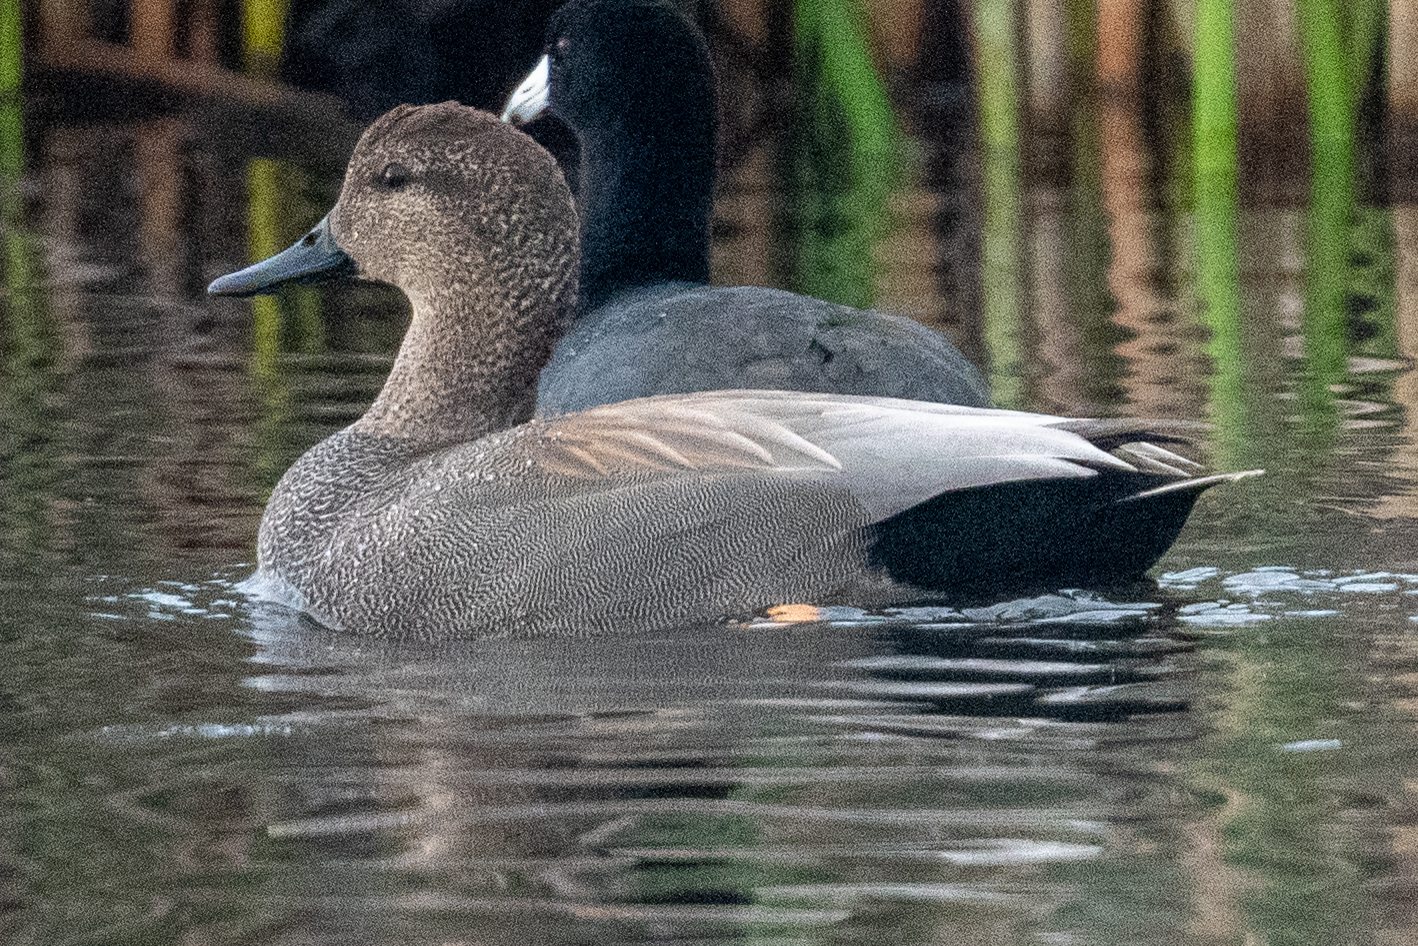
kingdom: Animalia
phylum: Chordata
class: Aves
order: Anseriformes
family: Anatidae
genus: Mareca
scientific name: Mareca strepera
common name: Gadwall
